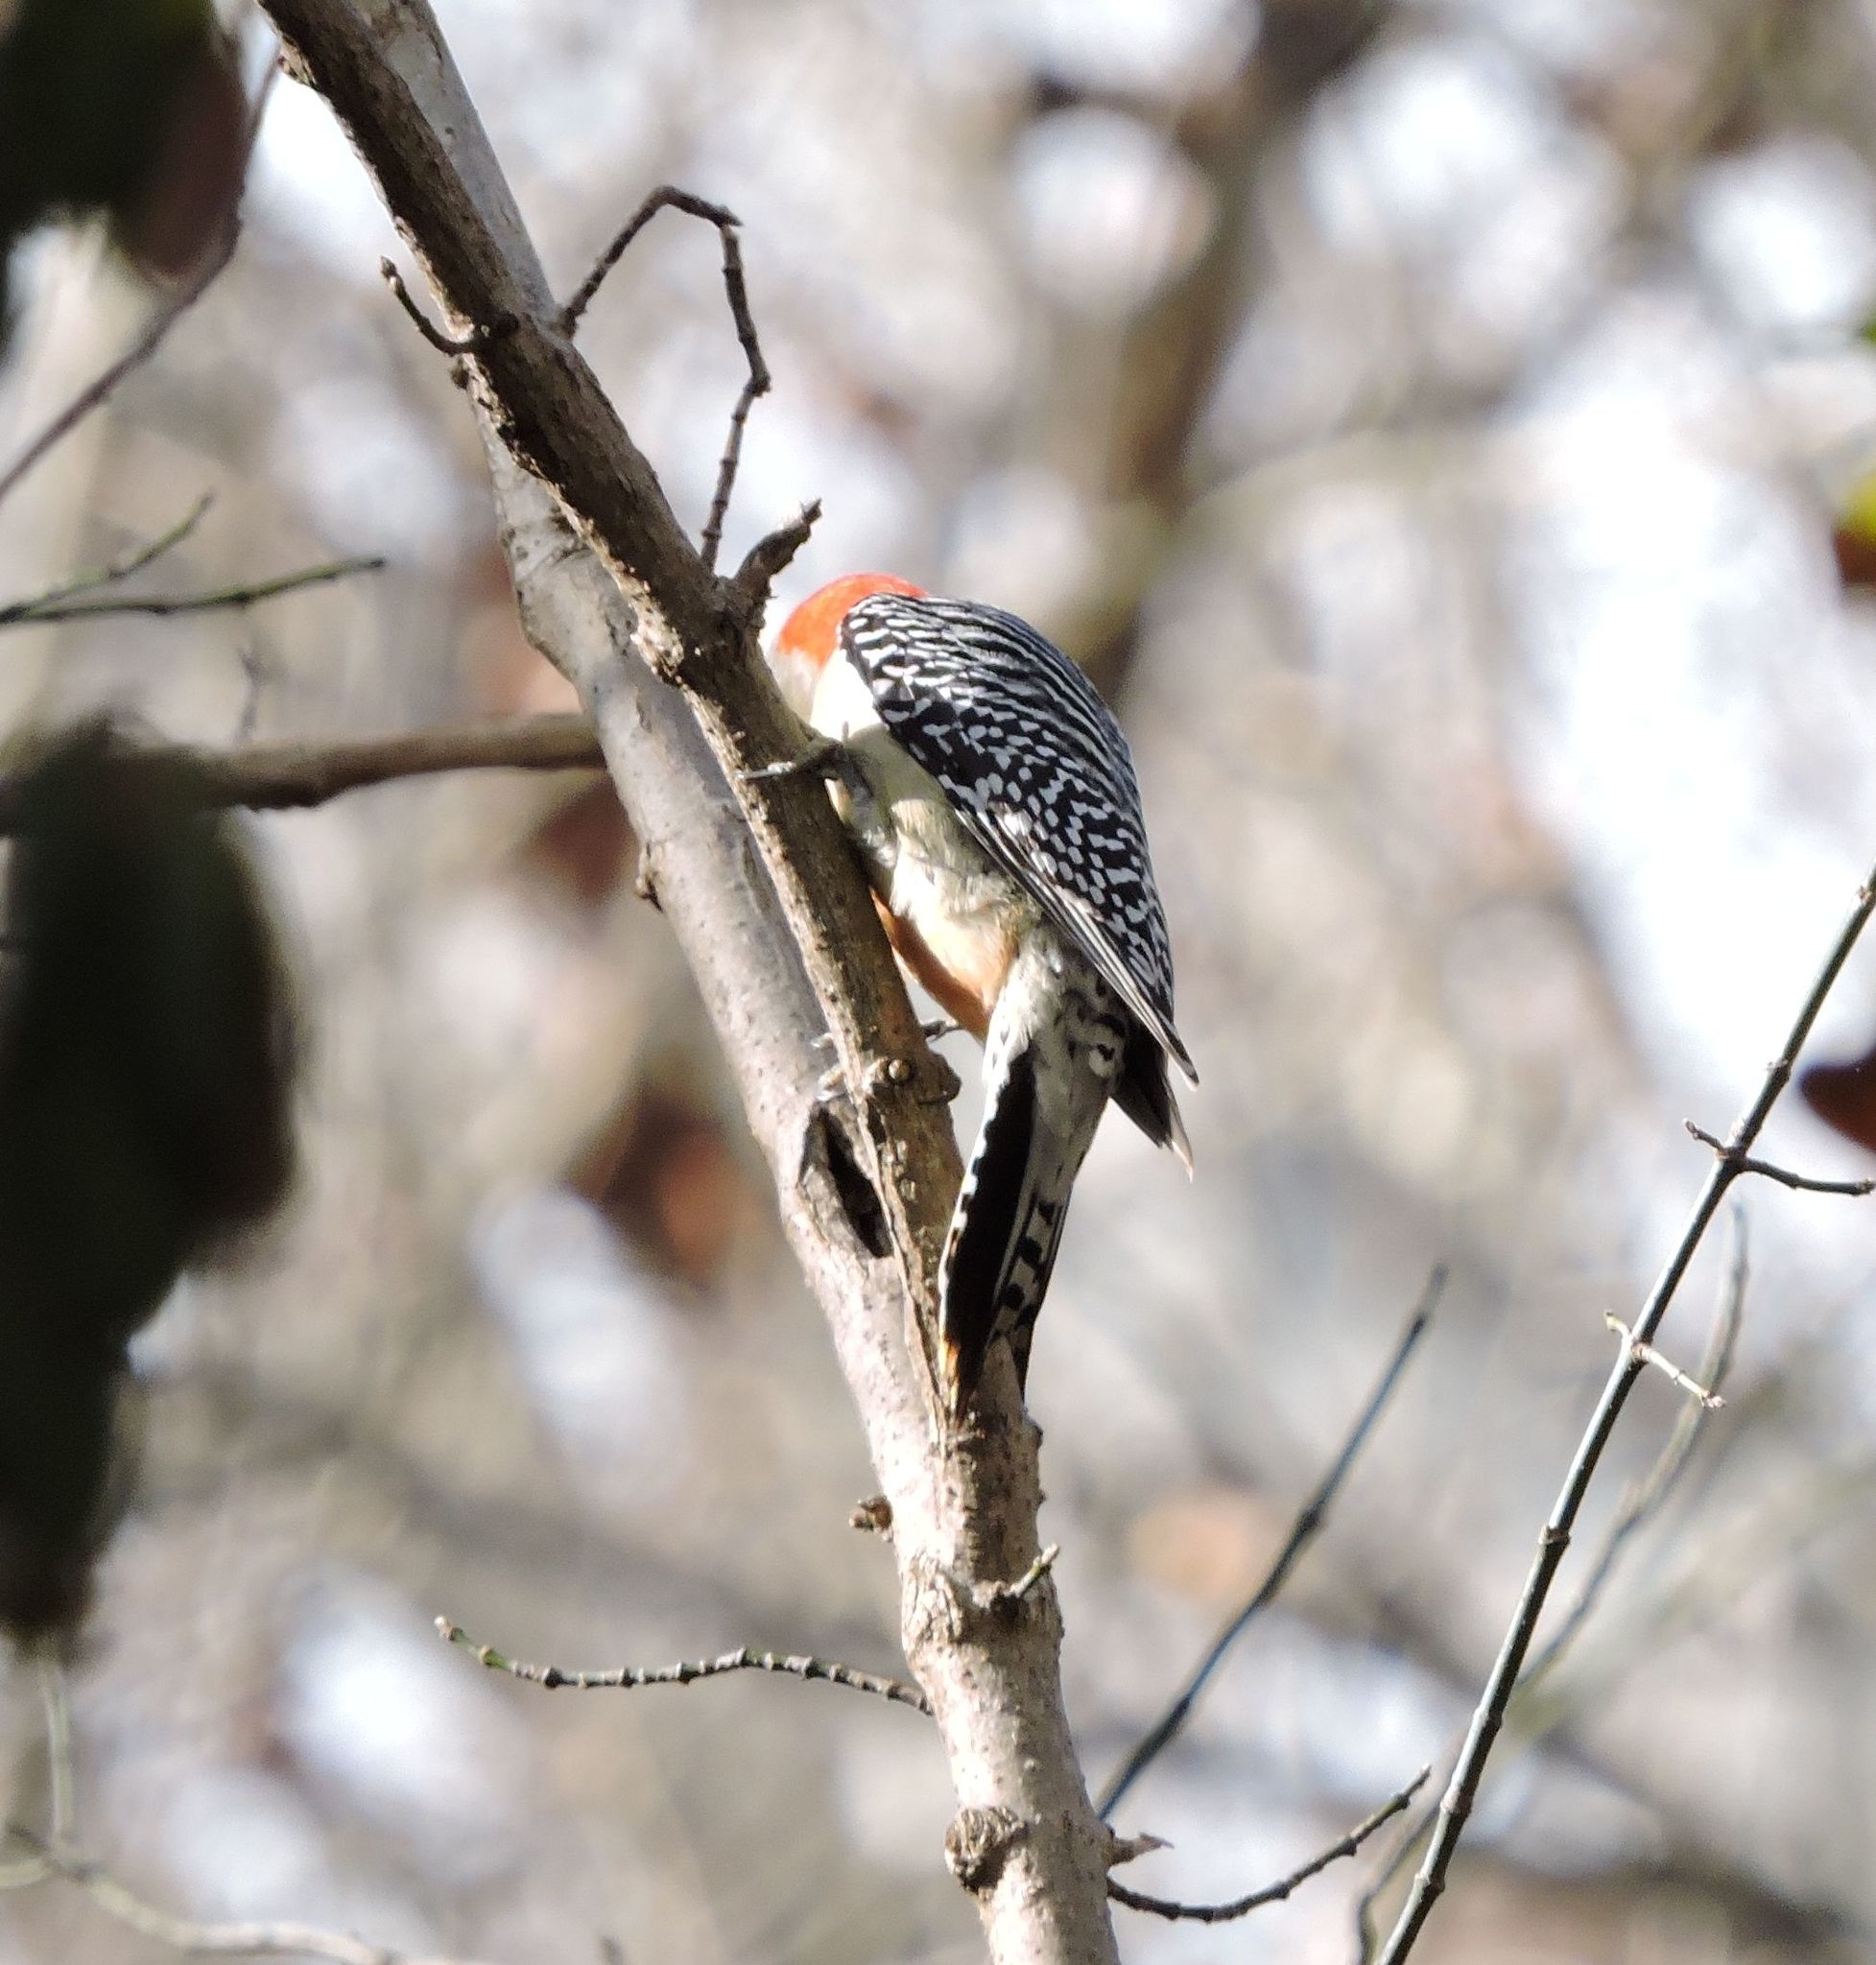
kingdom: Animalia
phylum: Chordata
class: Aves
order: Piciformes
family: Picidae
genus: Melanerpes
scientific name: Melanerpes carolinus
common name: Red-bellied woodpecker
